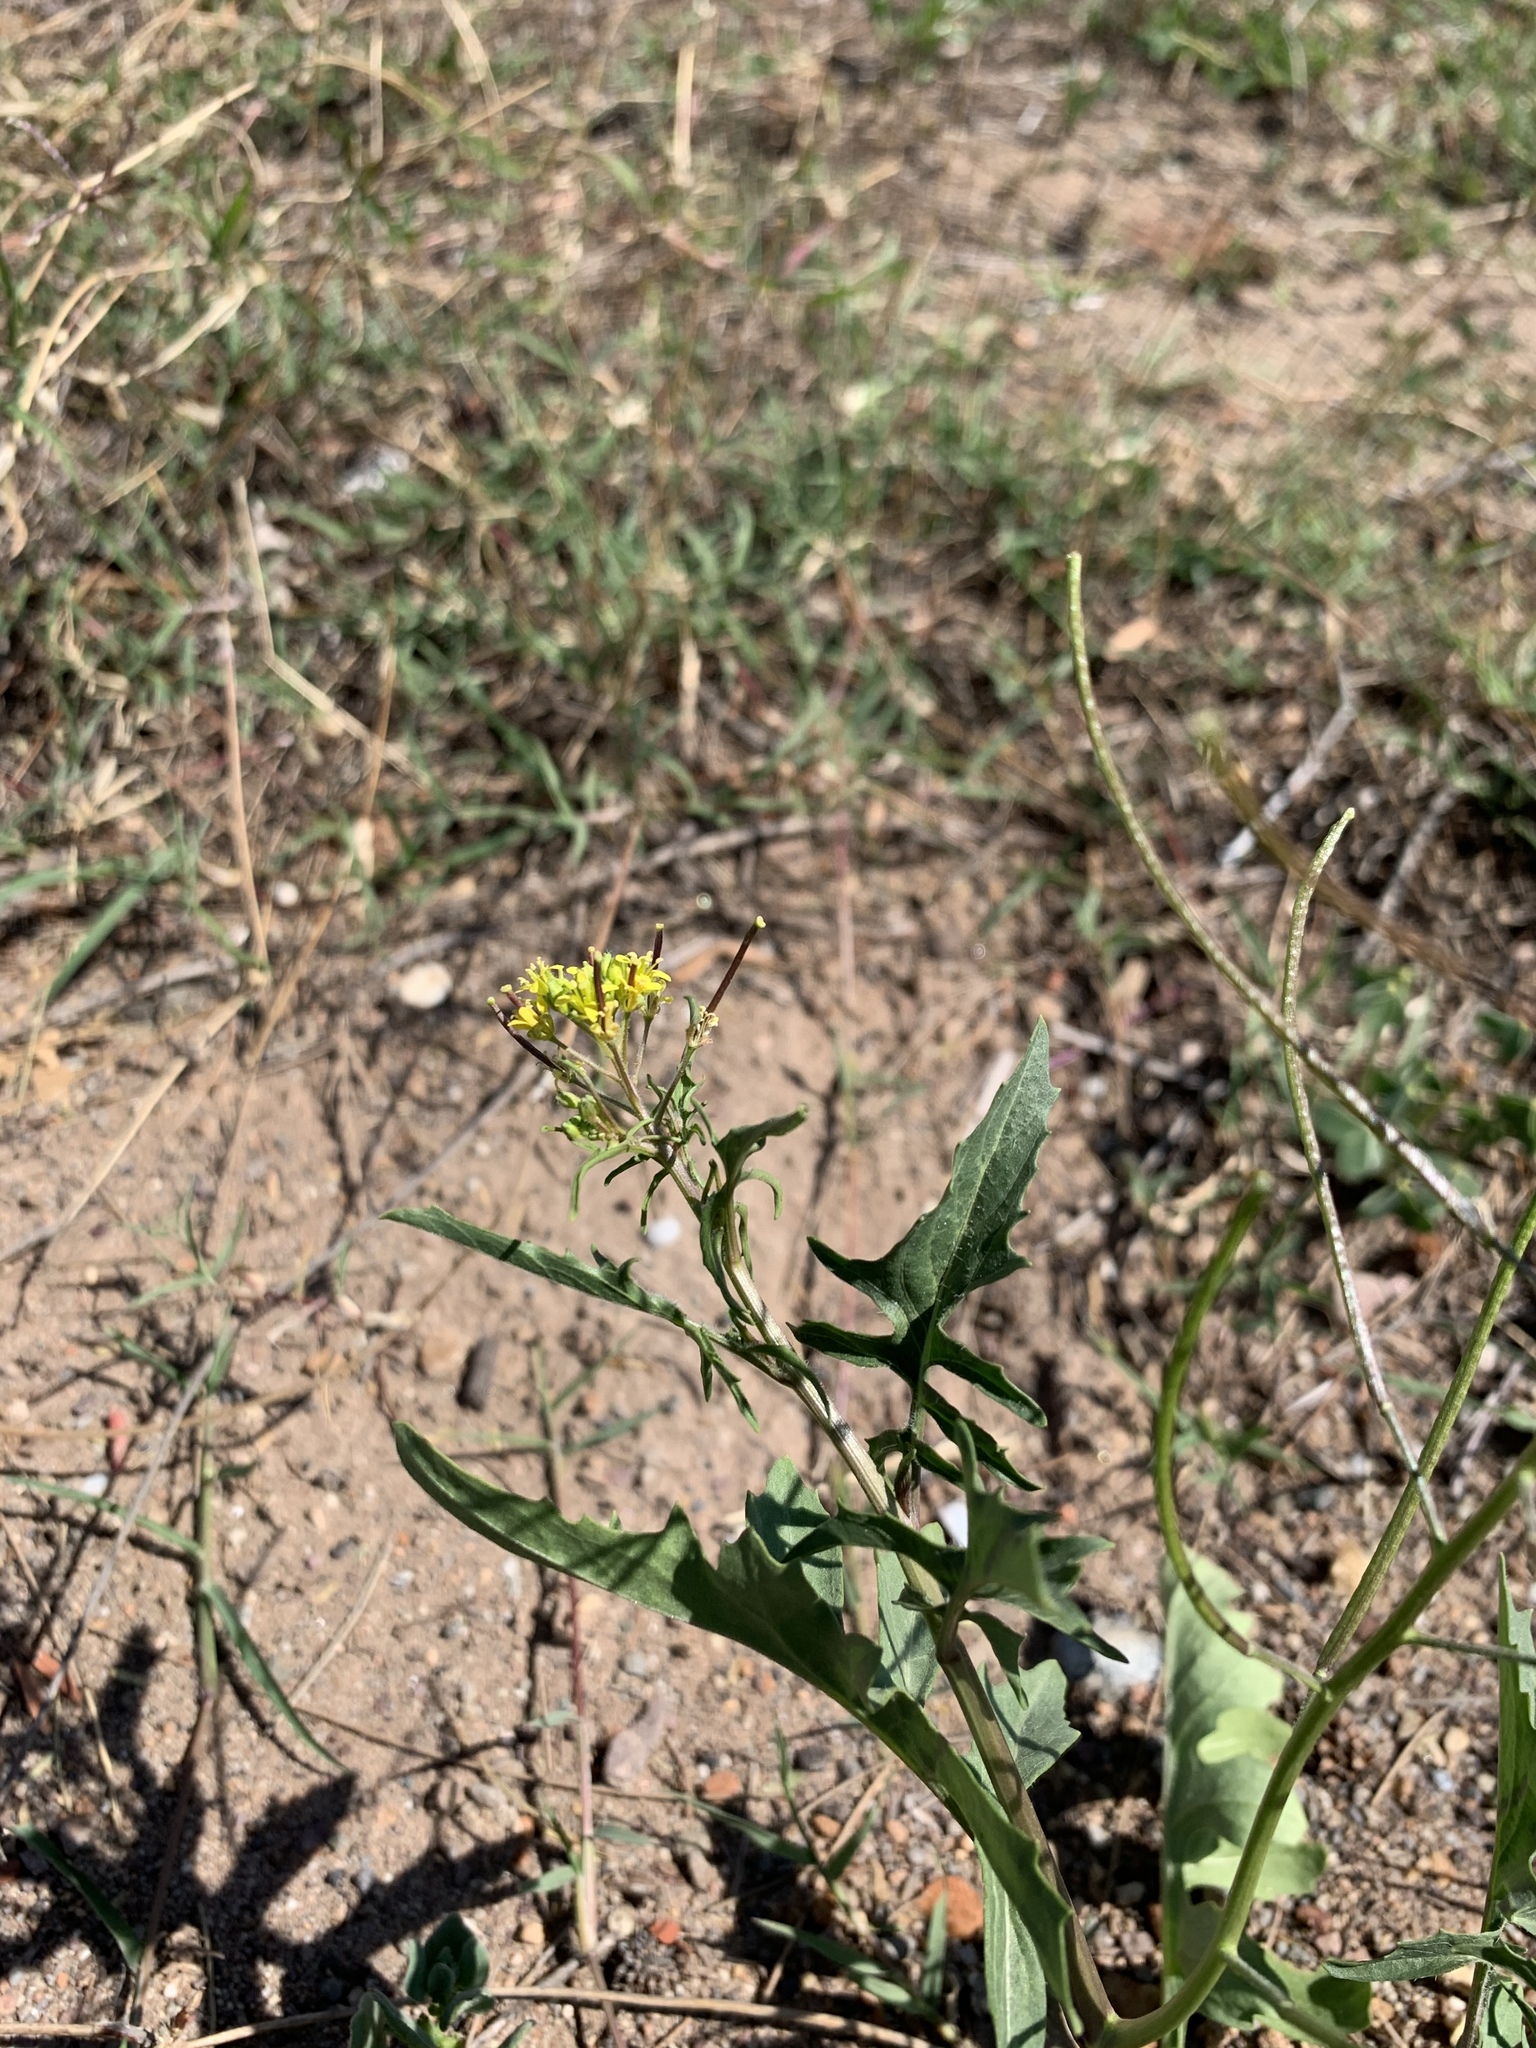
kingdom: Plantae
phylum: Tracheophyta
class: Magnoliopsida
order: Brassicales
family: Brassicaceae
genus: Sisymbrium
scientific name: Sisymbrium capense
